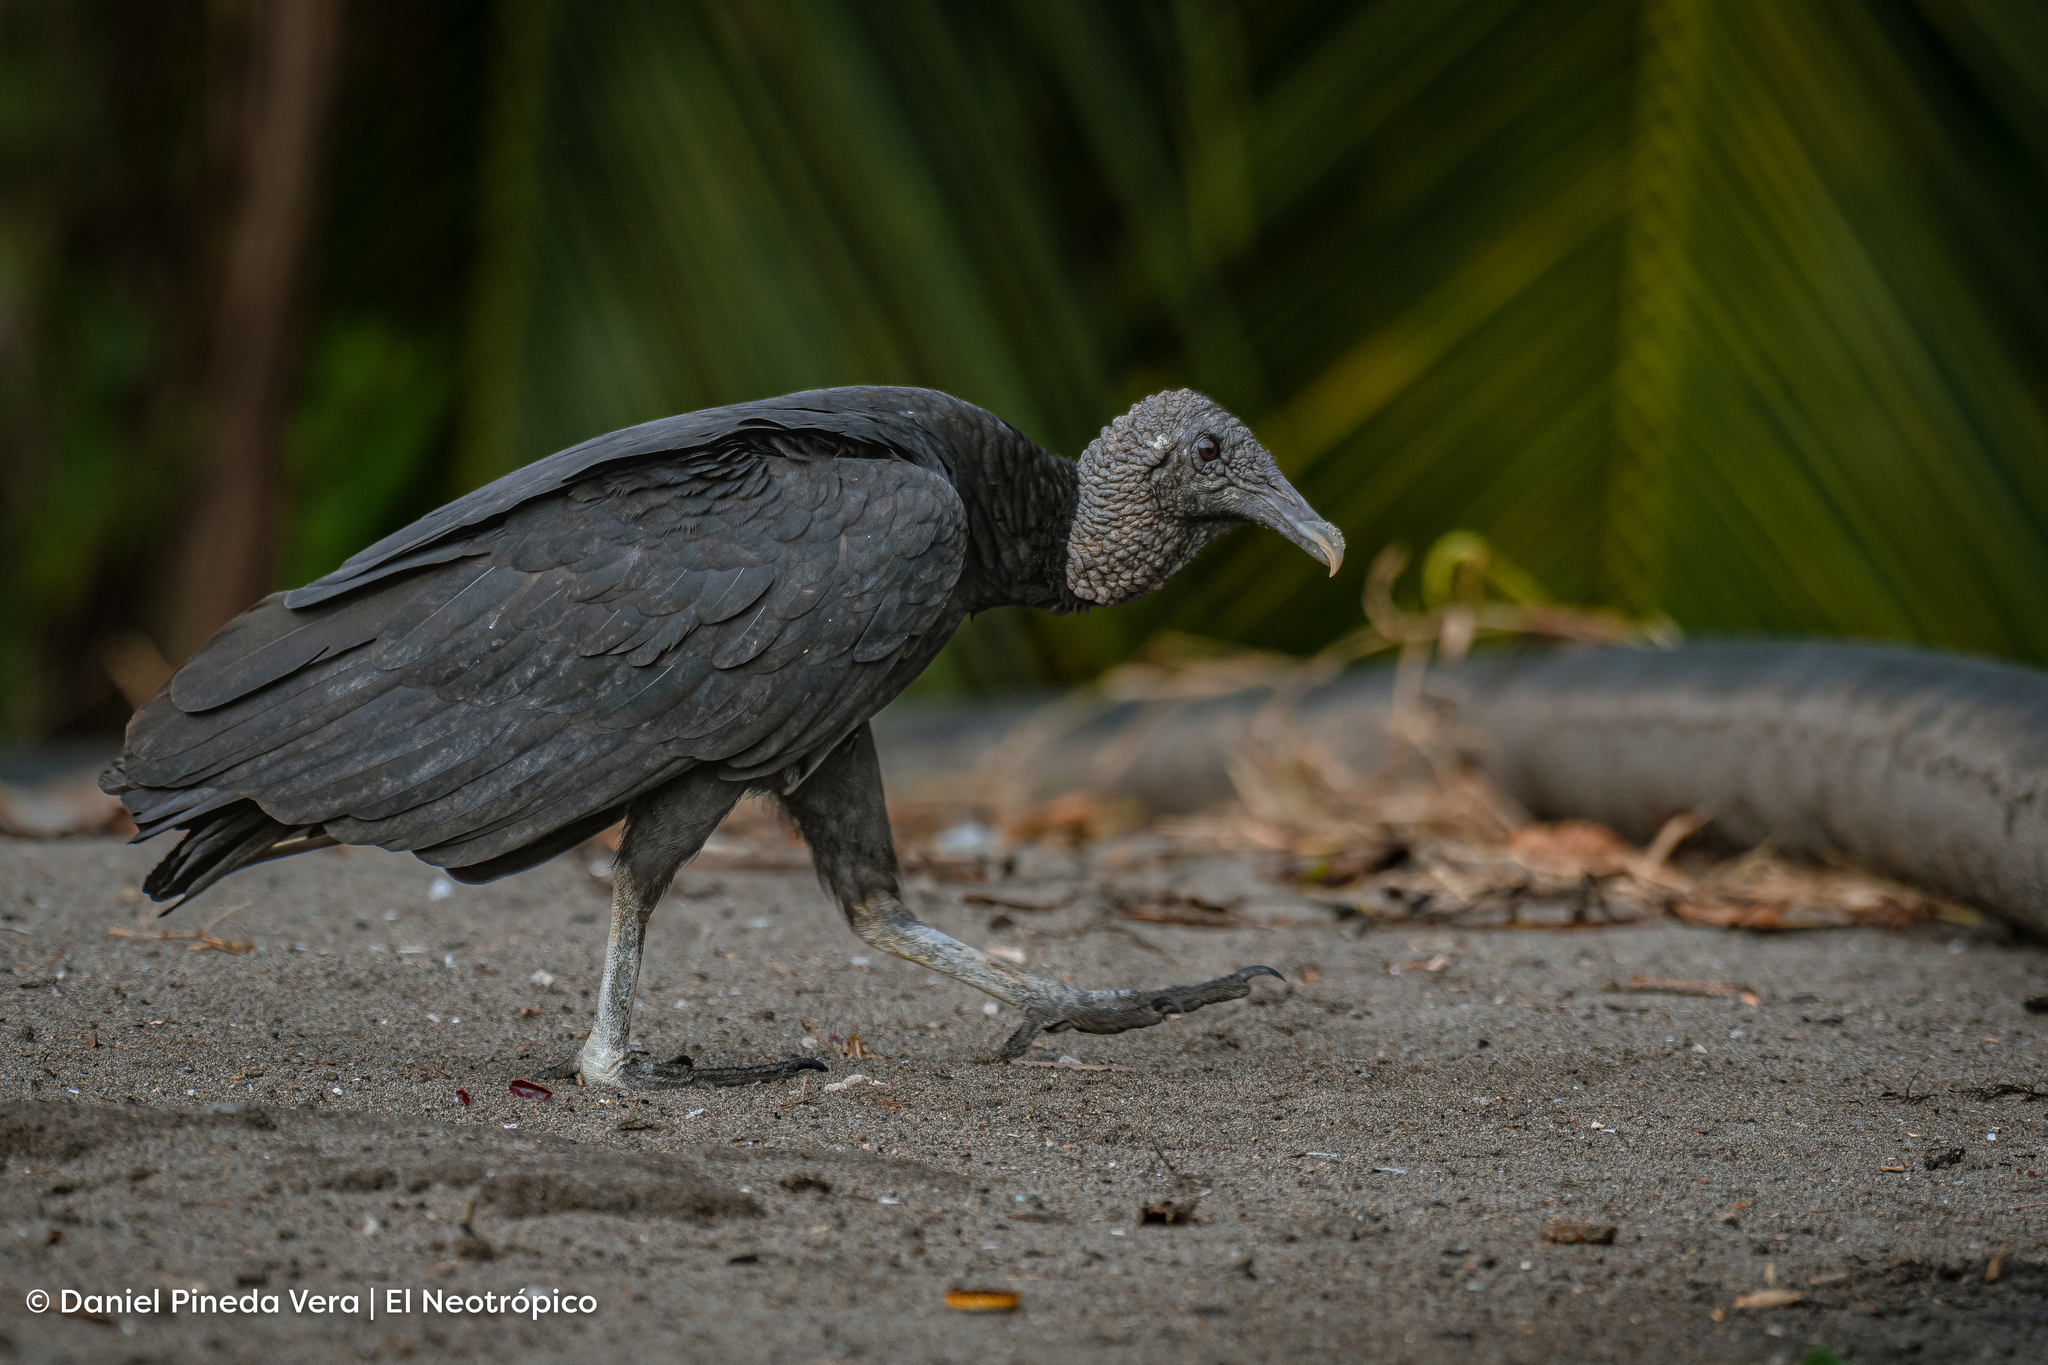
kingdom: Animalia
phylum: Chordata
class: Aves
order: Accipitriformes
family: Cathartidae
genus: Coragyps
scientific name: Coragyps atratus
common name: Black vulture
